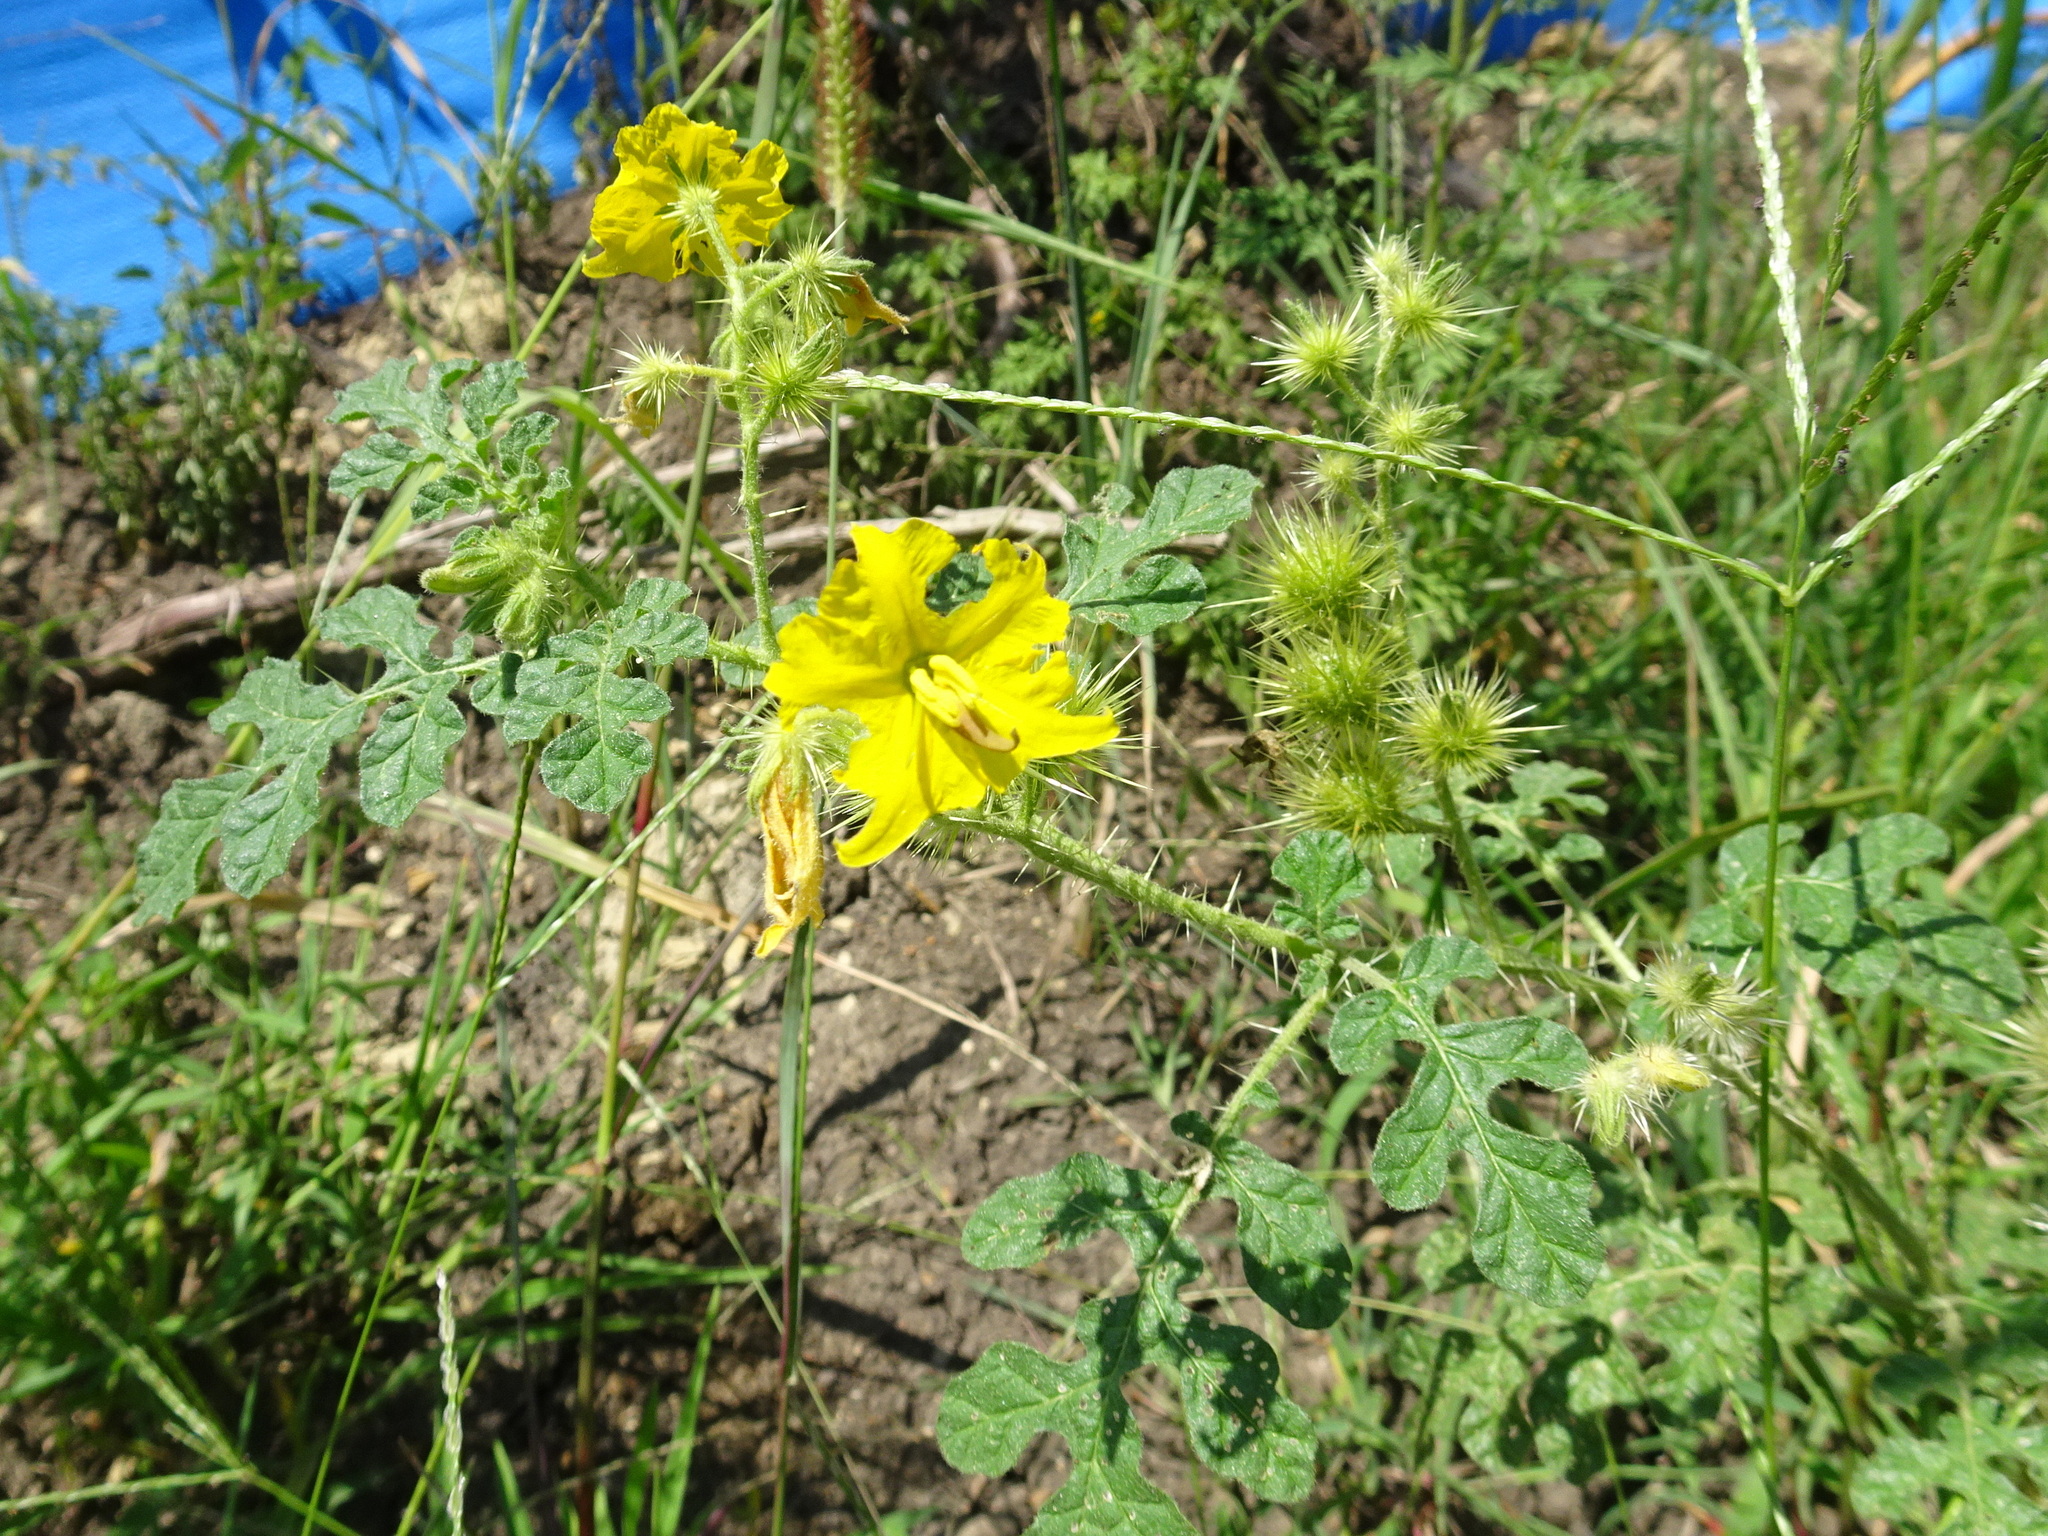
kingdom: Plantae
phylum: Tracheophyta
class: Magnoliopsida
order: Solanales
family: Solanaceae
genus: Solanum
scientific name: Solanum angustifolium
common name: Buffalobur nightshade
